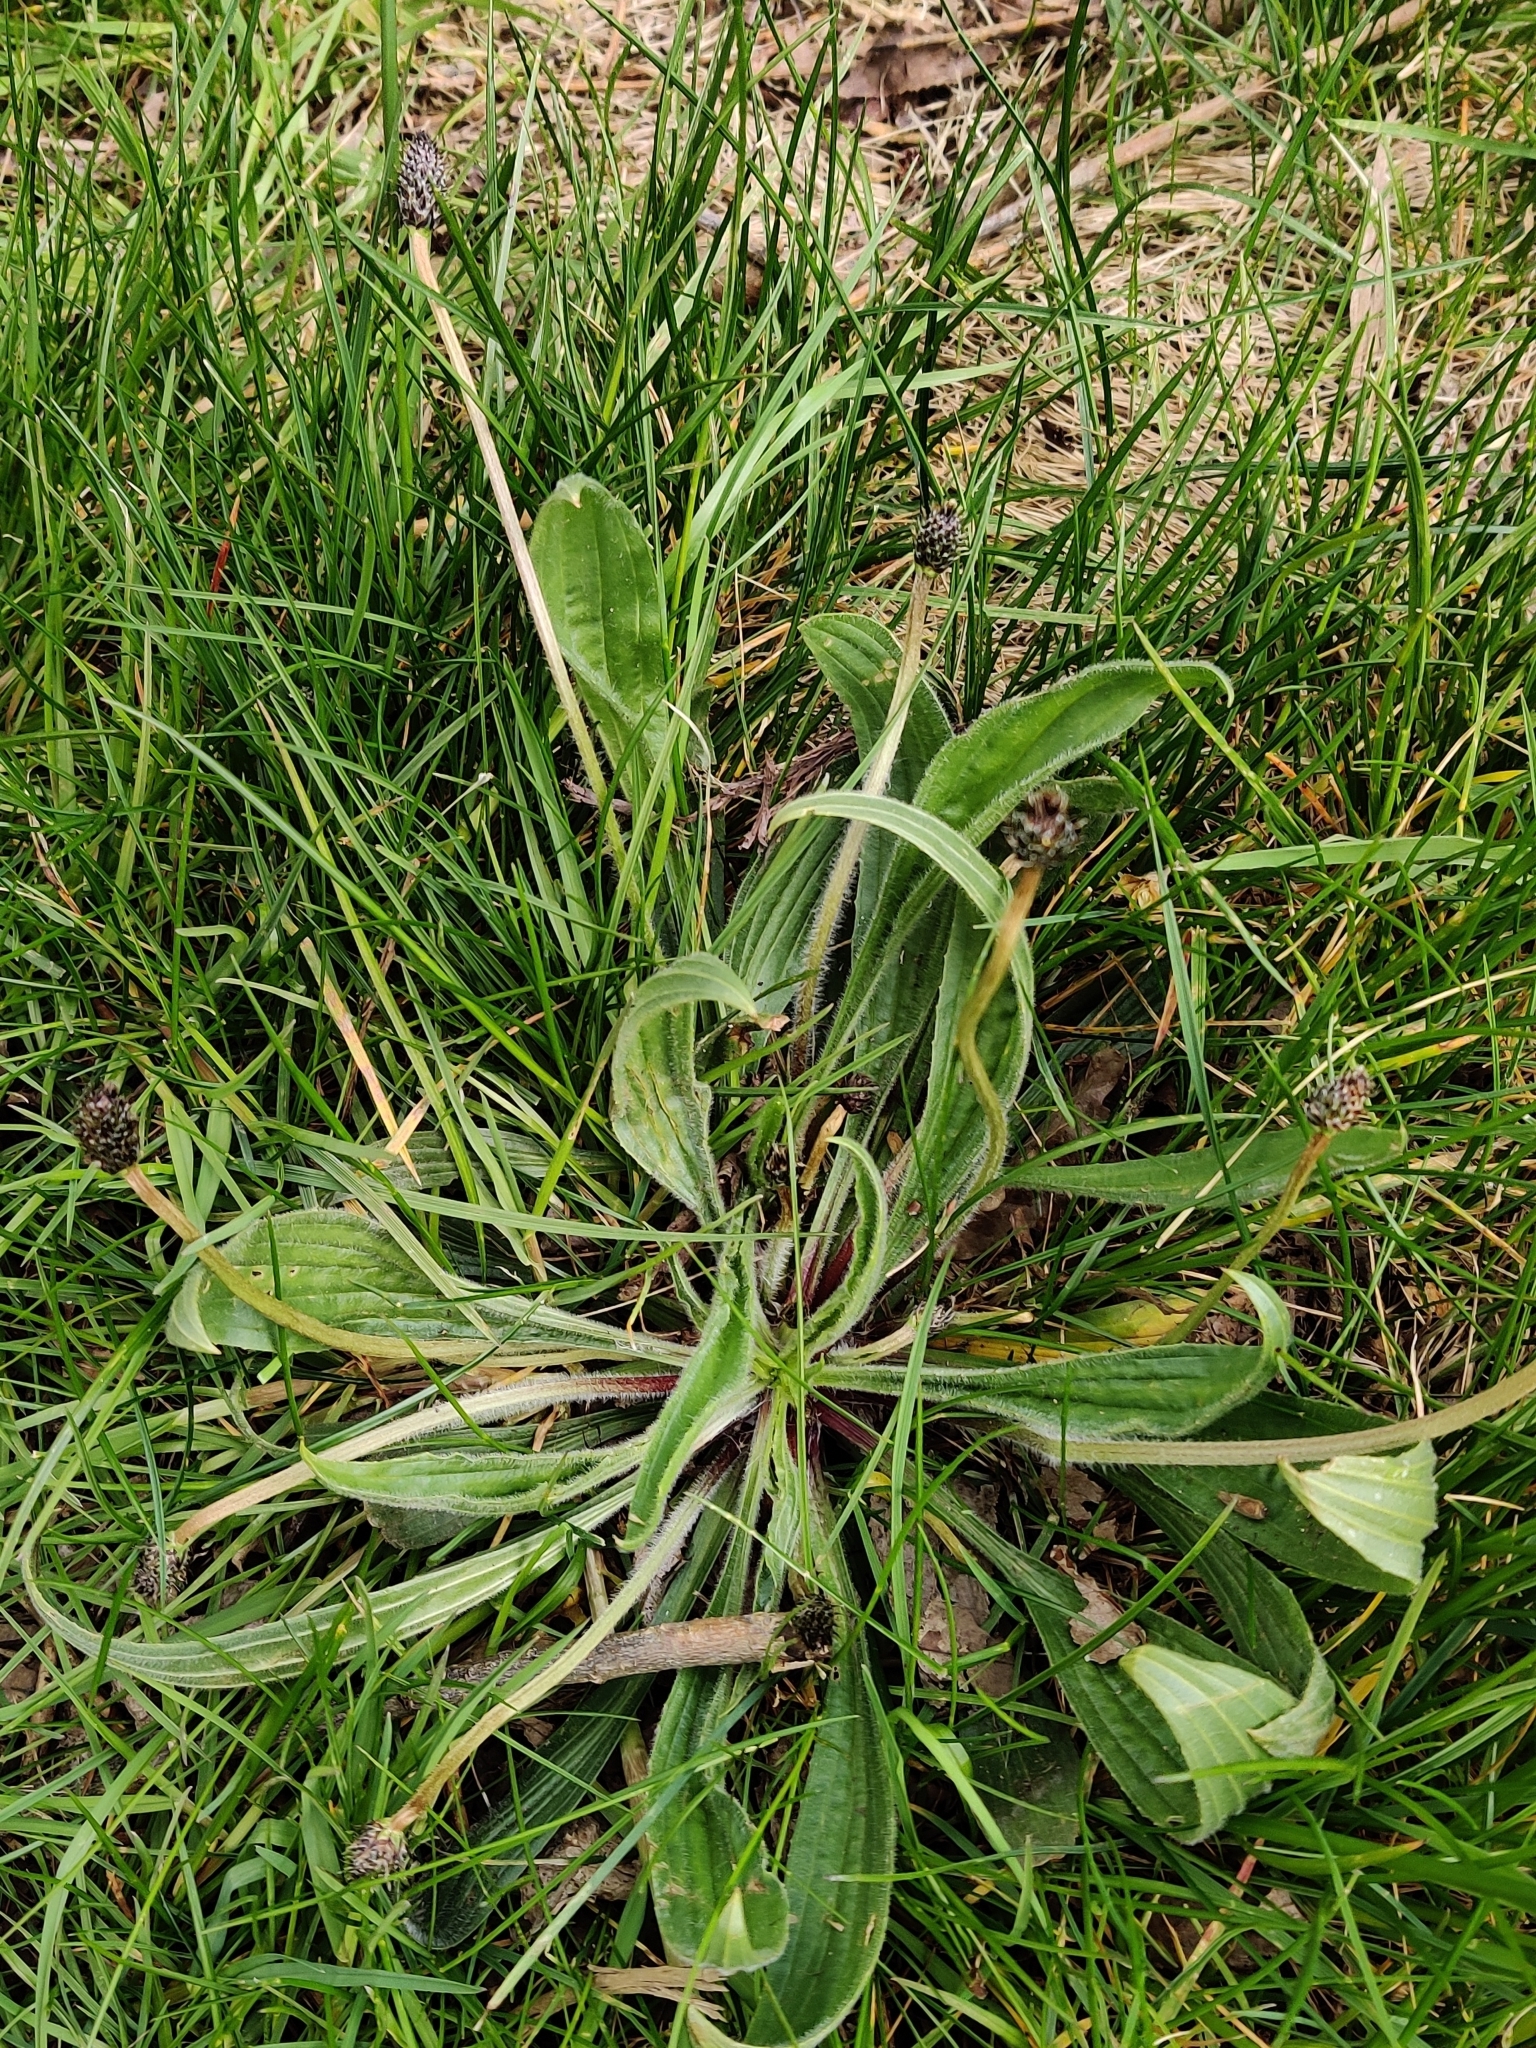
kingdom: Plantae
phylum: Tracheophyta
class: Magnoliopsida
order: Lamiales
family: Plantaginaceae
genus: Plantago
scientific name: Plantago lanceolata
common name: Ribwort plantain
